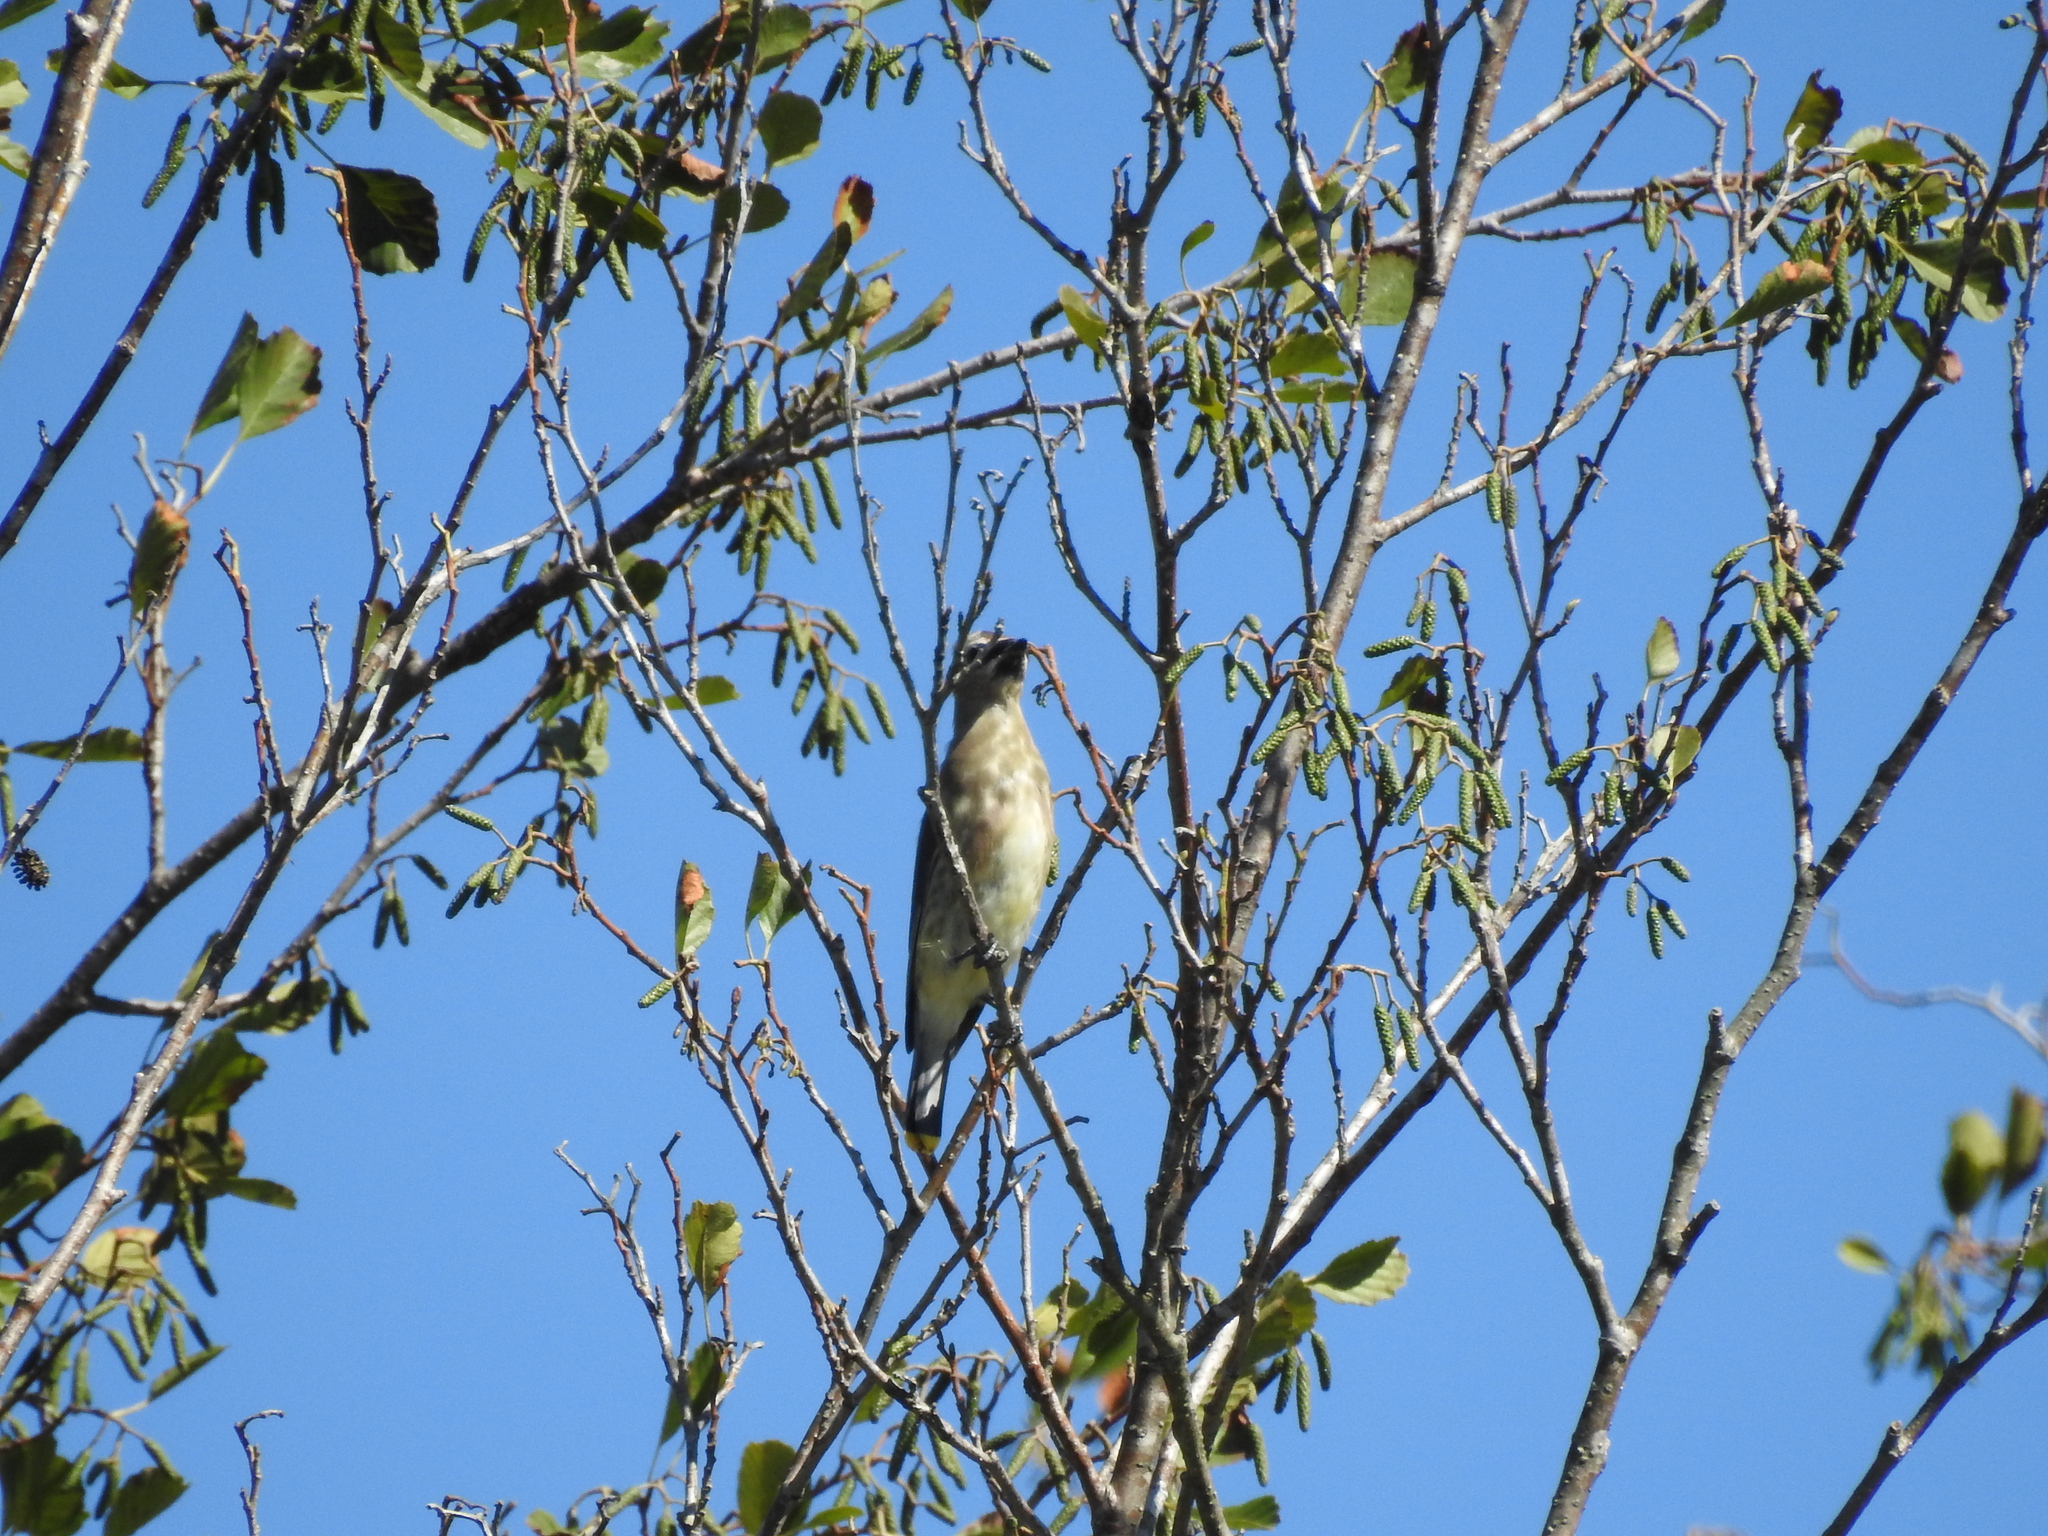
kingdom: Animalia
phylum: Chordata
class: Aves
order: Passeriformes
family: Bombycillidae
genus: Bombycilla
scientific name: Bombycilla cedrorum
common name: Cedar waxwing
